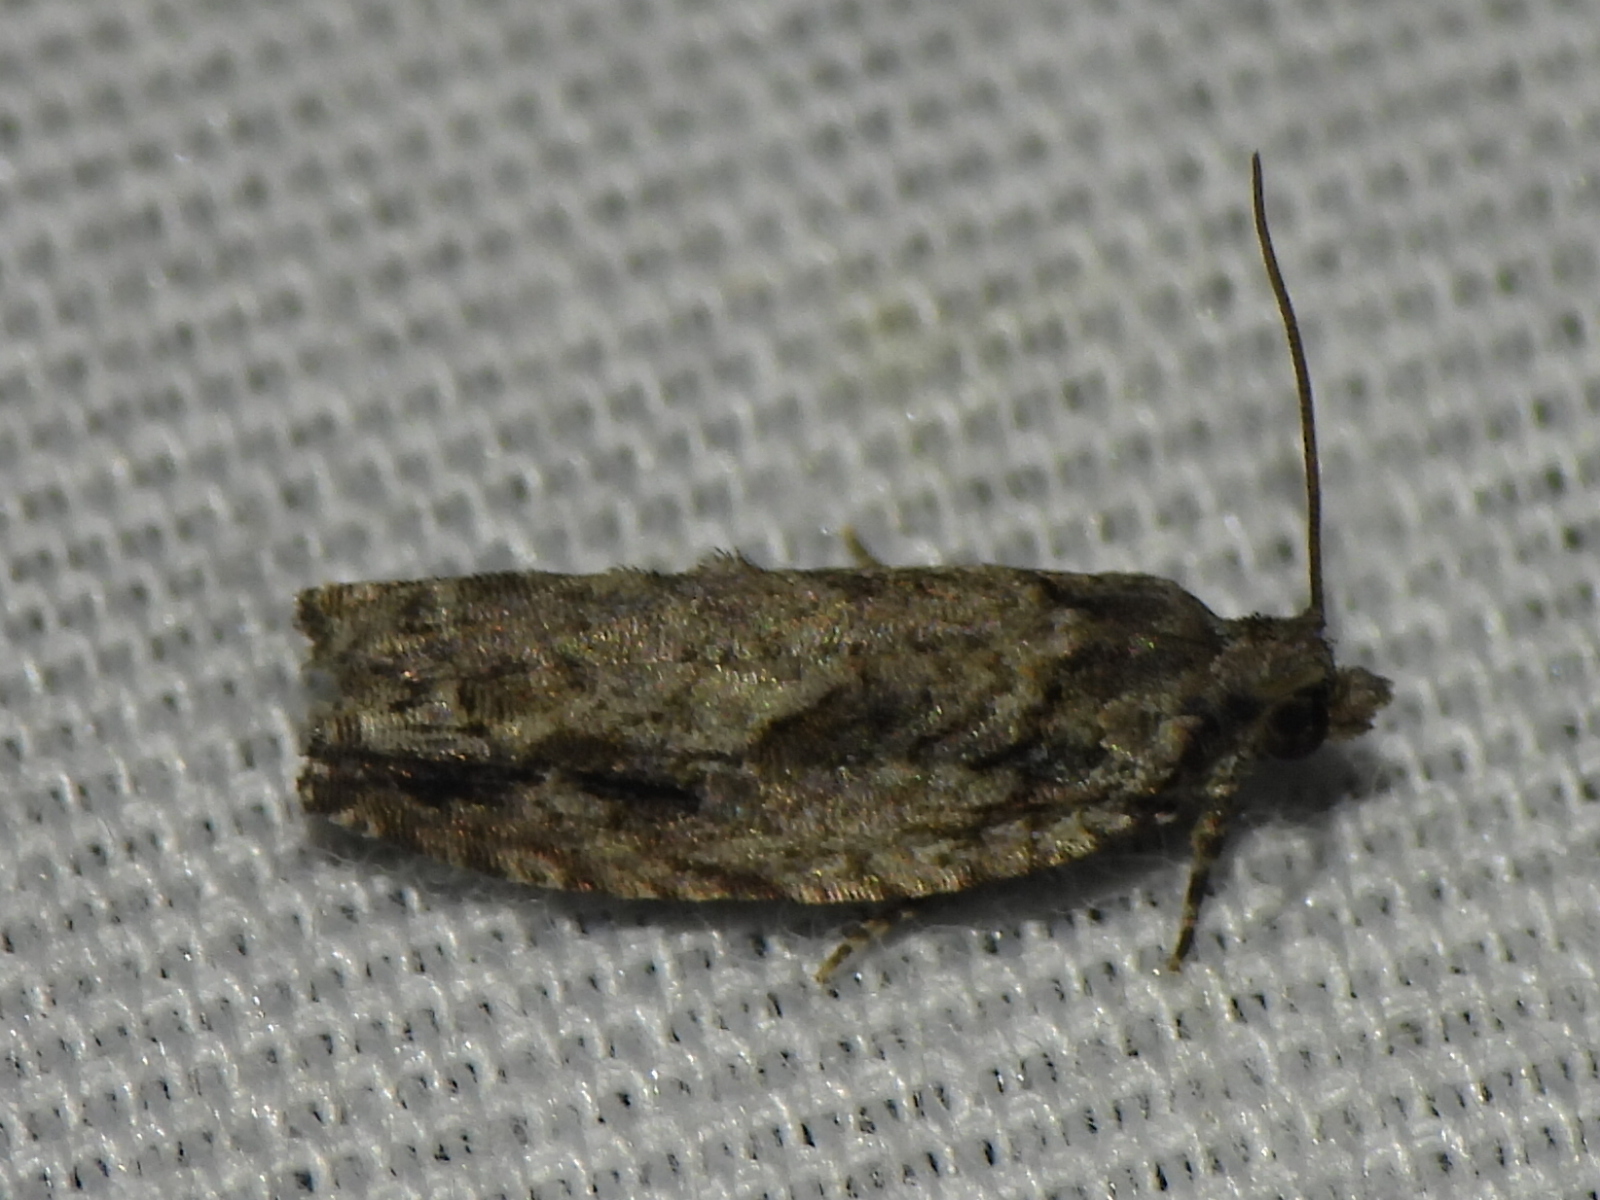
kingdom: Animalia
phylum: Arthropoda
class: Insecta
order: Lepidoptera
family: Tortricidae
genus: Gretchena
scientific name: Gretchena bolliana
